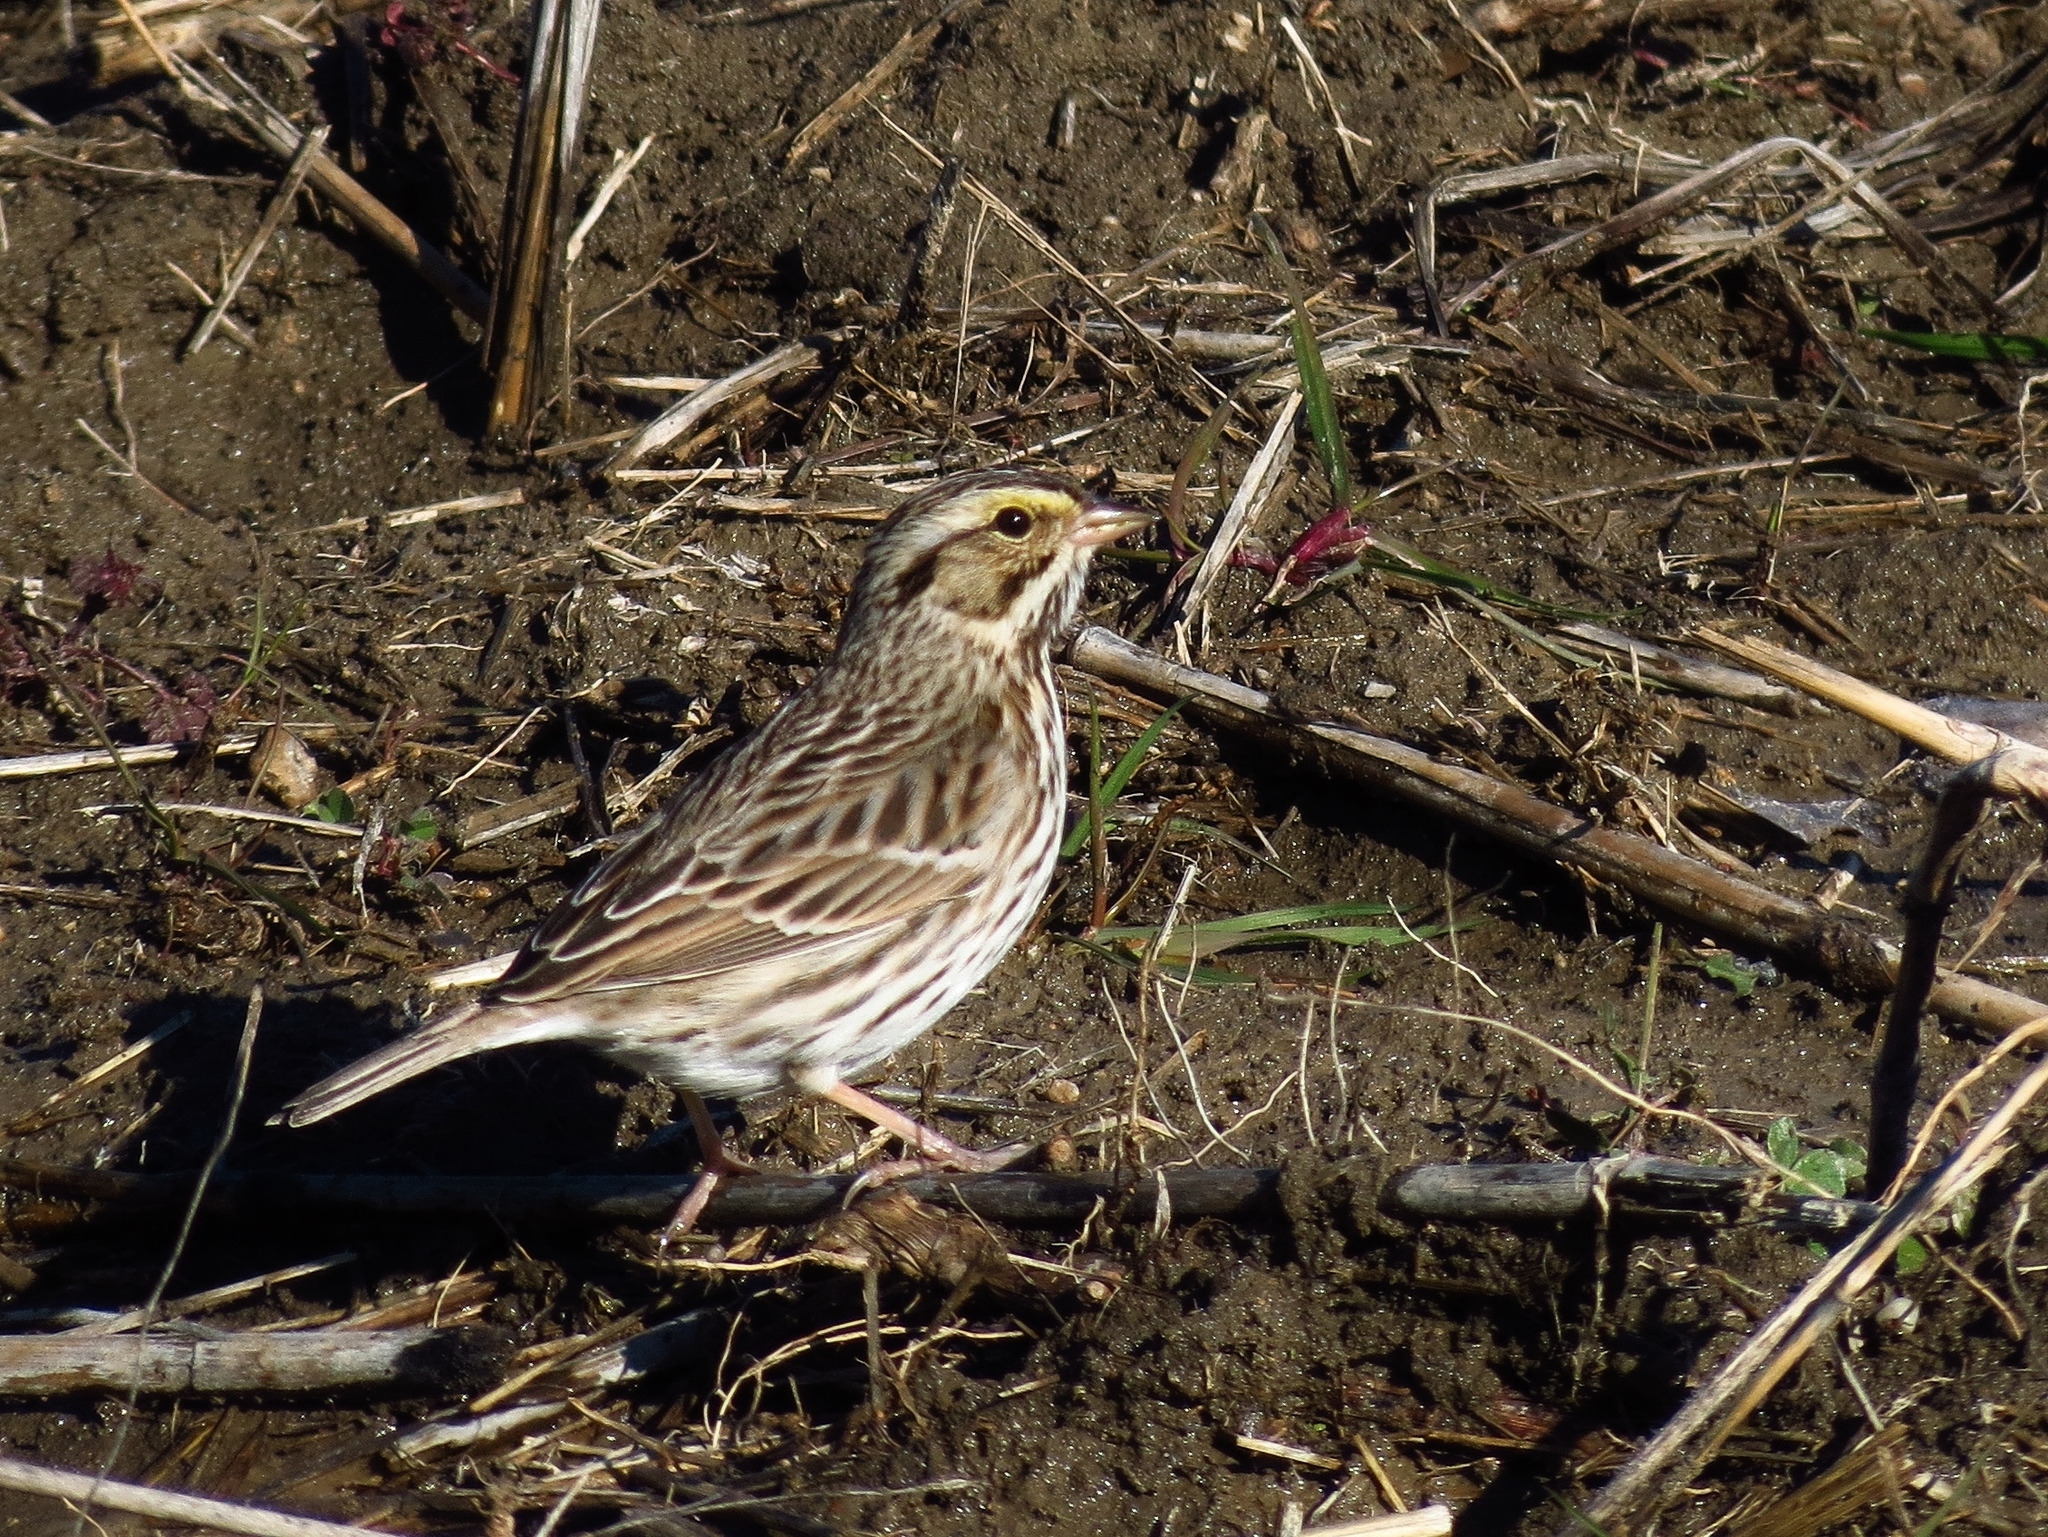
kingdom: Animalia
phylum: Chordata
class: Aves
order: Passeriformes
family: Passerellidae
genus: Passerculus
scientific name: Passerculus sandwichensis
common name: Savannah sparrow
